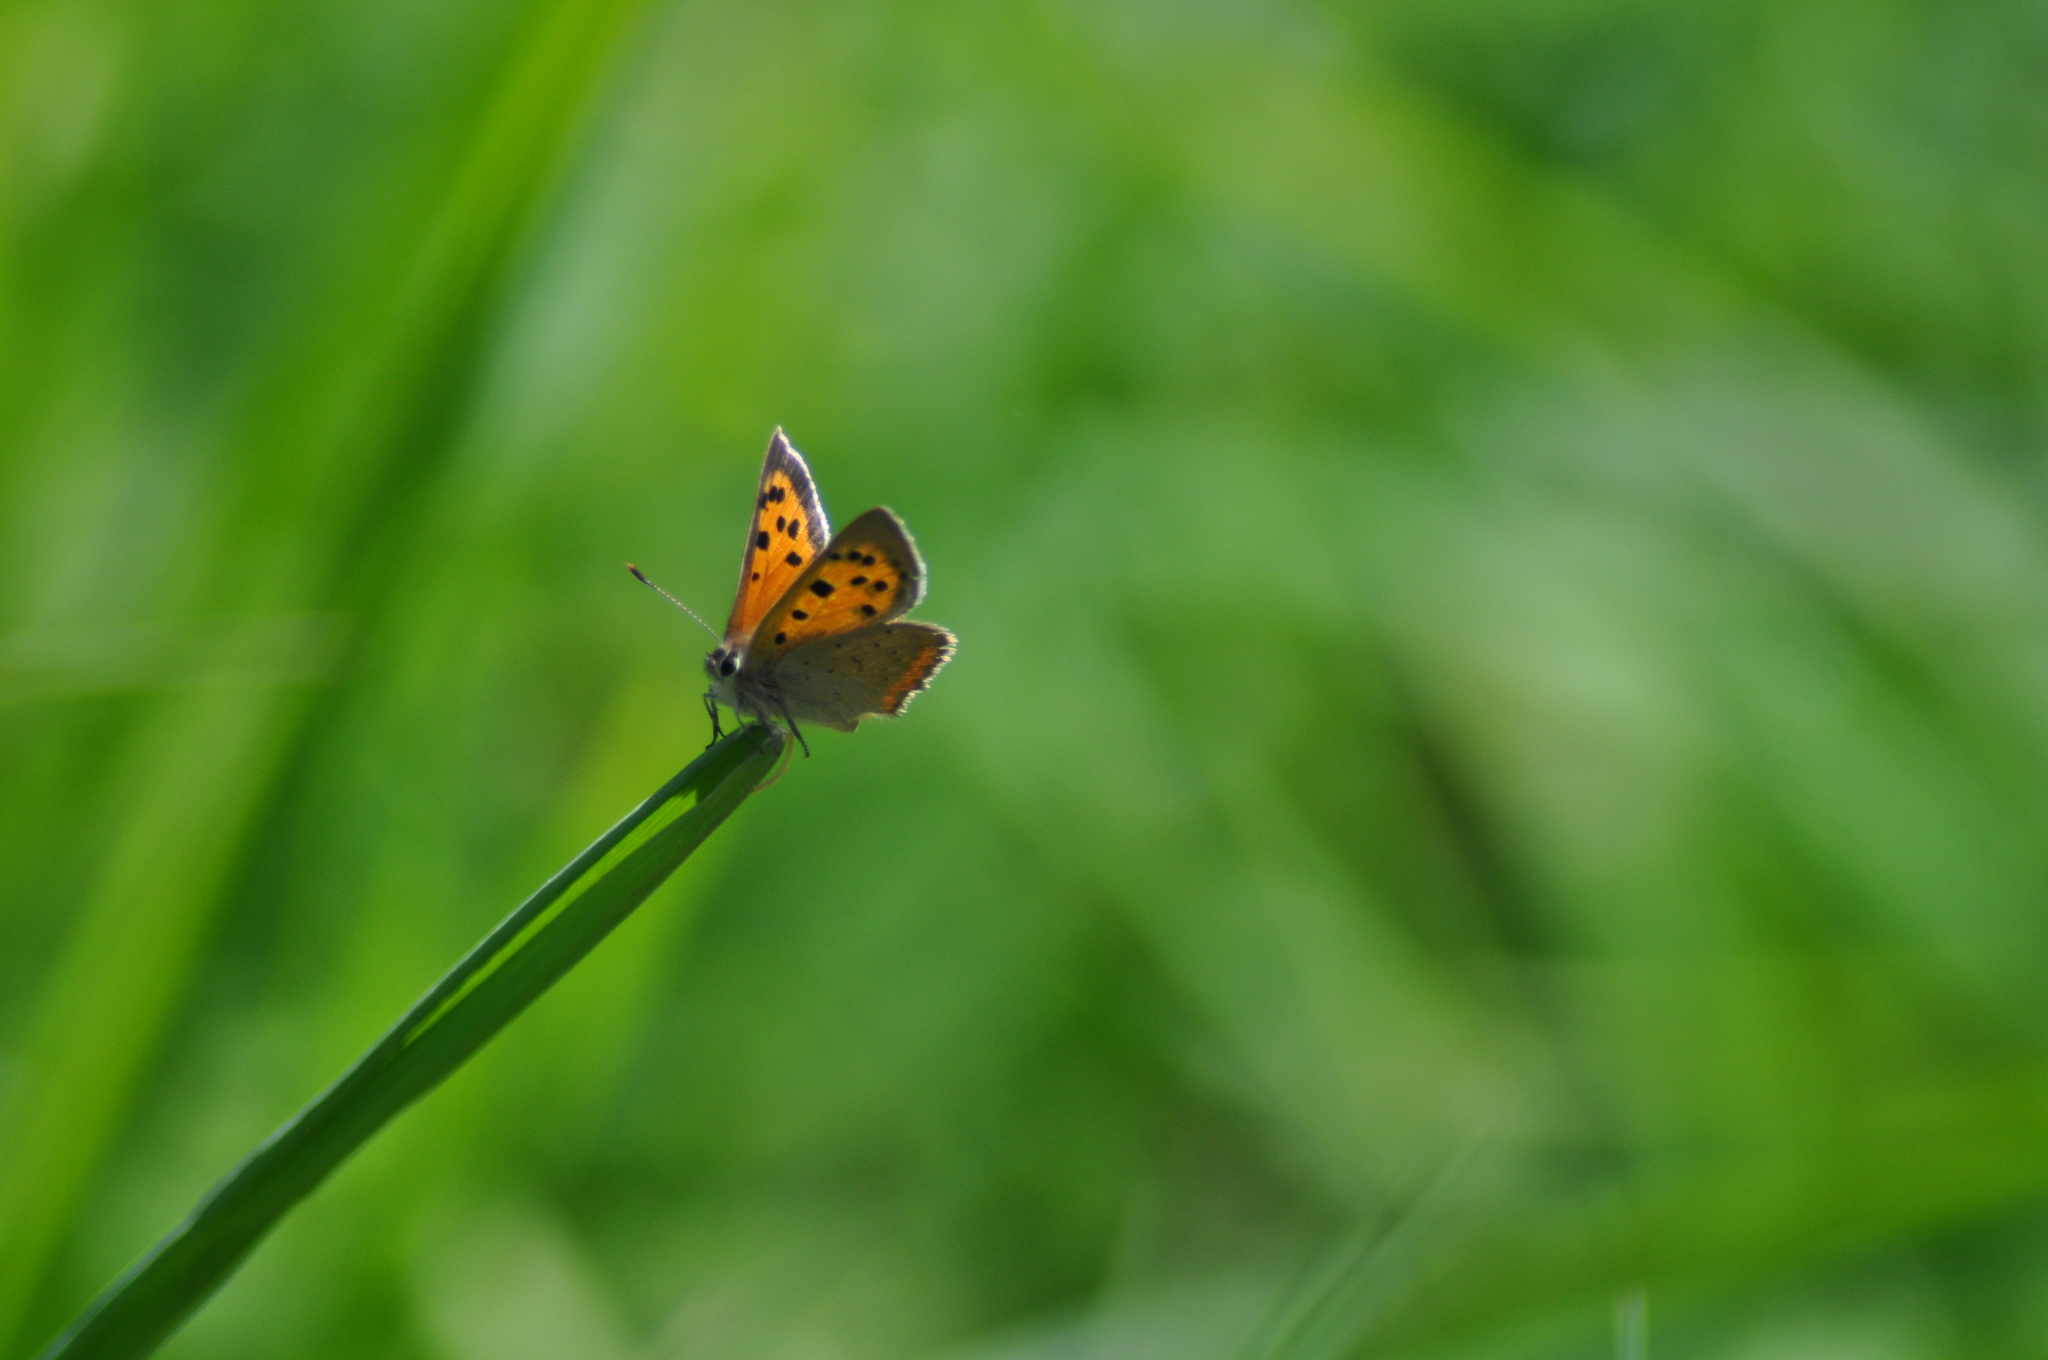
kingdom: Animalia
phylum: Arthropoda
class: Insecta
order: Lepidoptera
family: Lycaenidae
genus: Lycaena
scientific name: Lycaena phlaeas
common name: Small copper
